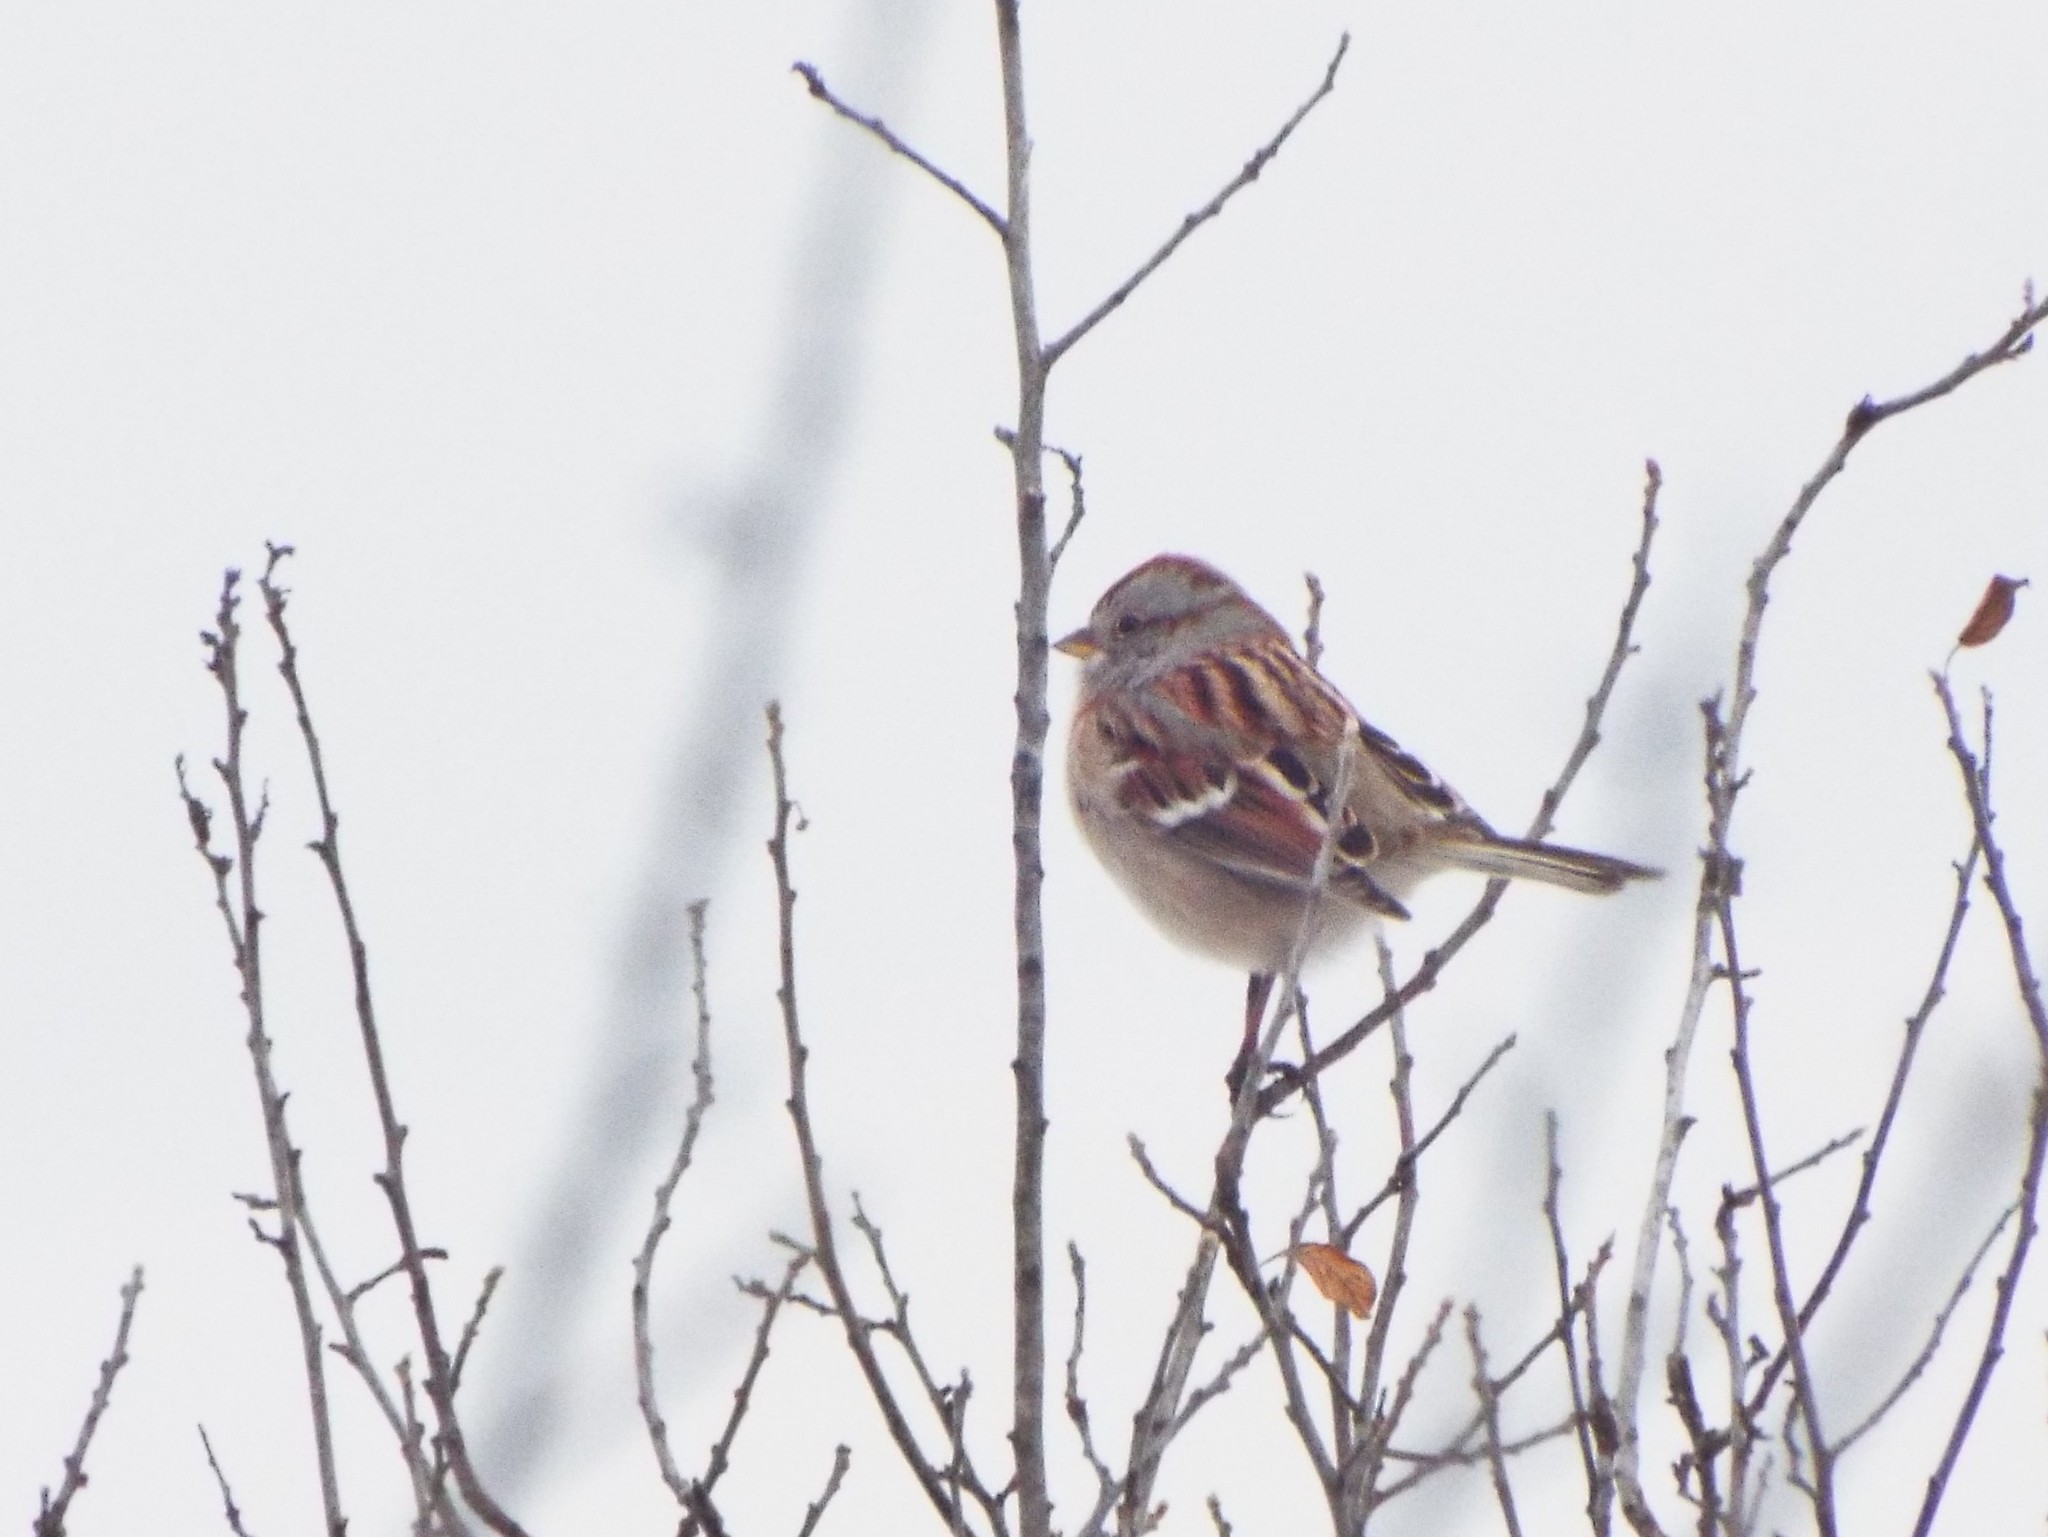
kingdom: Animalia
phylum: Chordata
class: Aves
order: Passeriformes
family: Passerellidae
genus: Spizelloides
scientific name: Spizelloides arborea
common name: American tree sparrow
